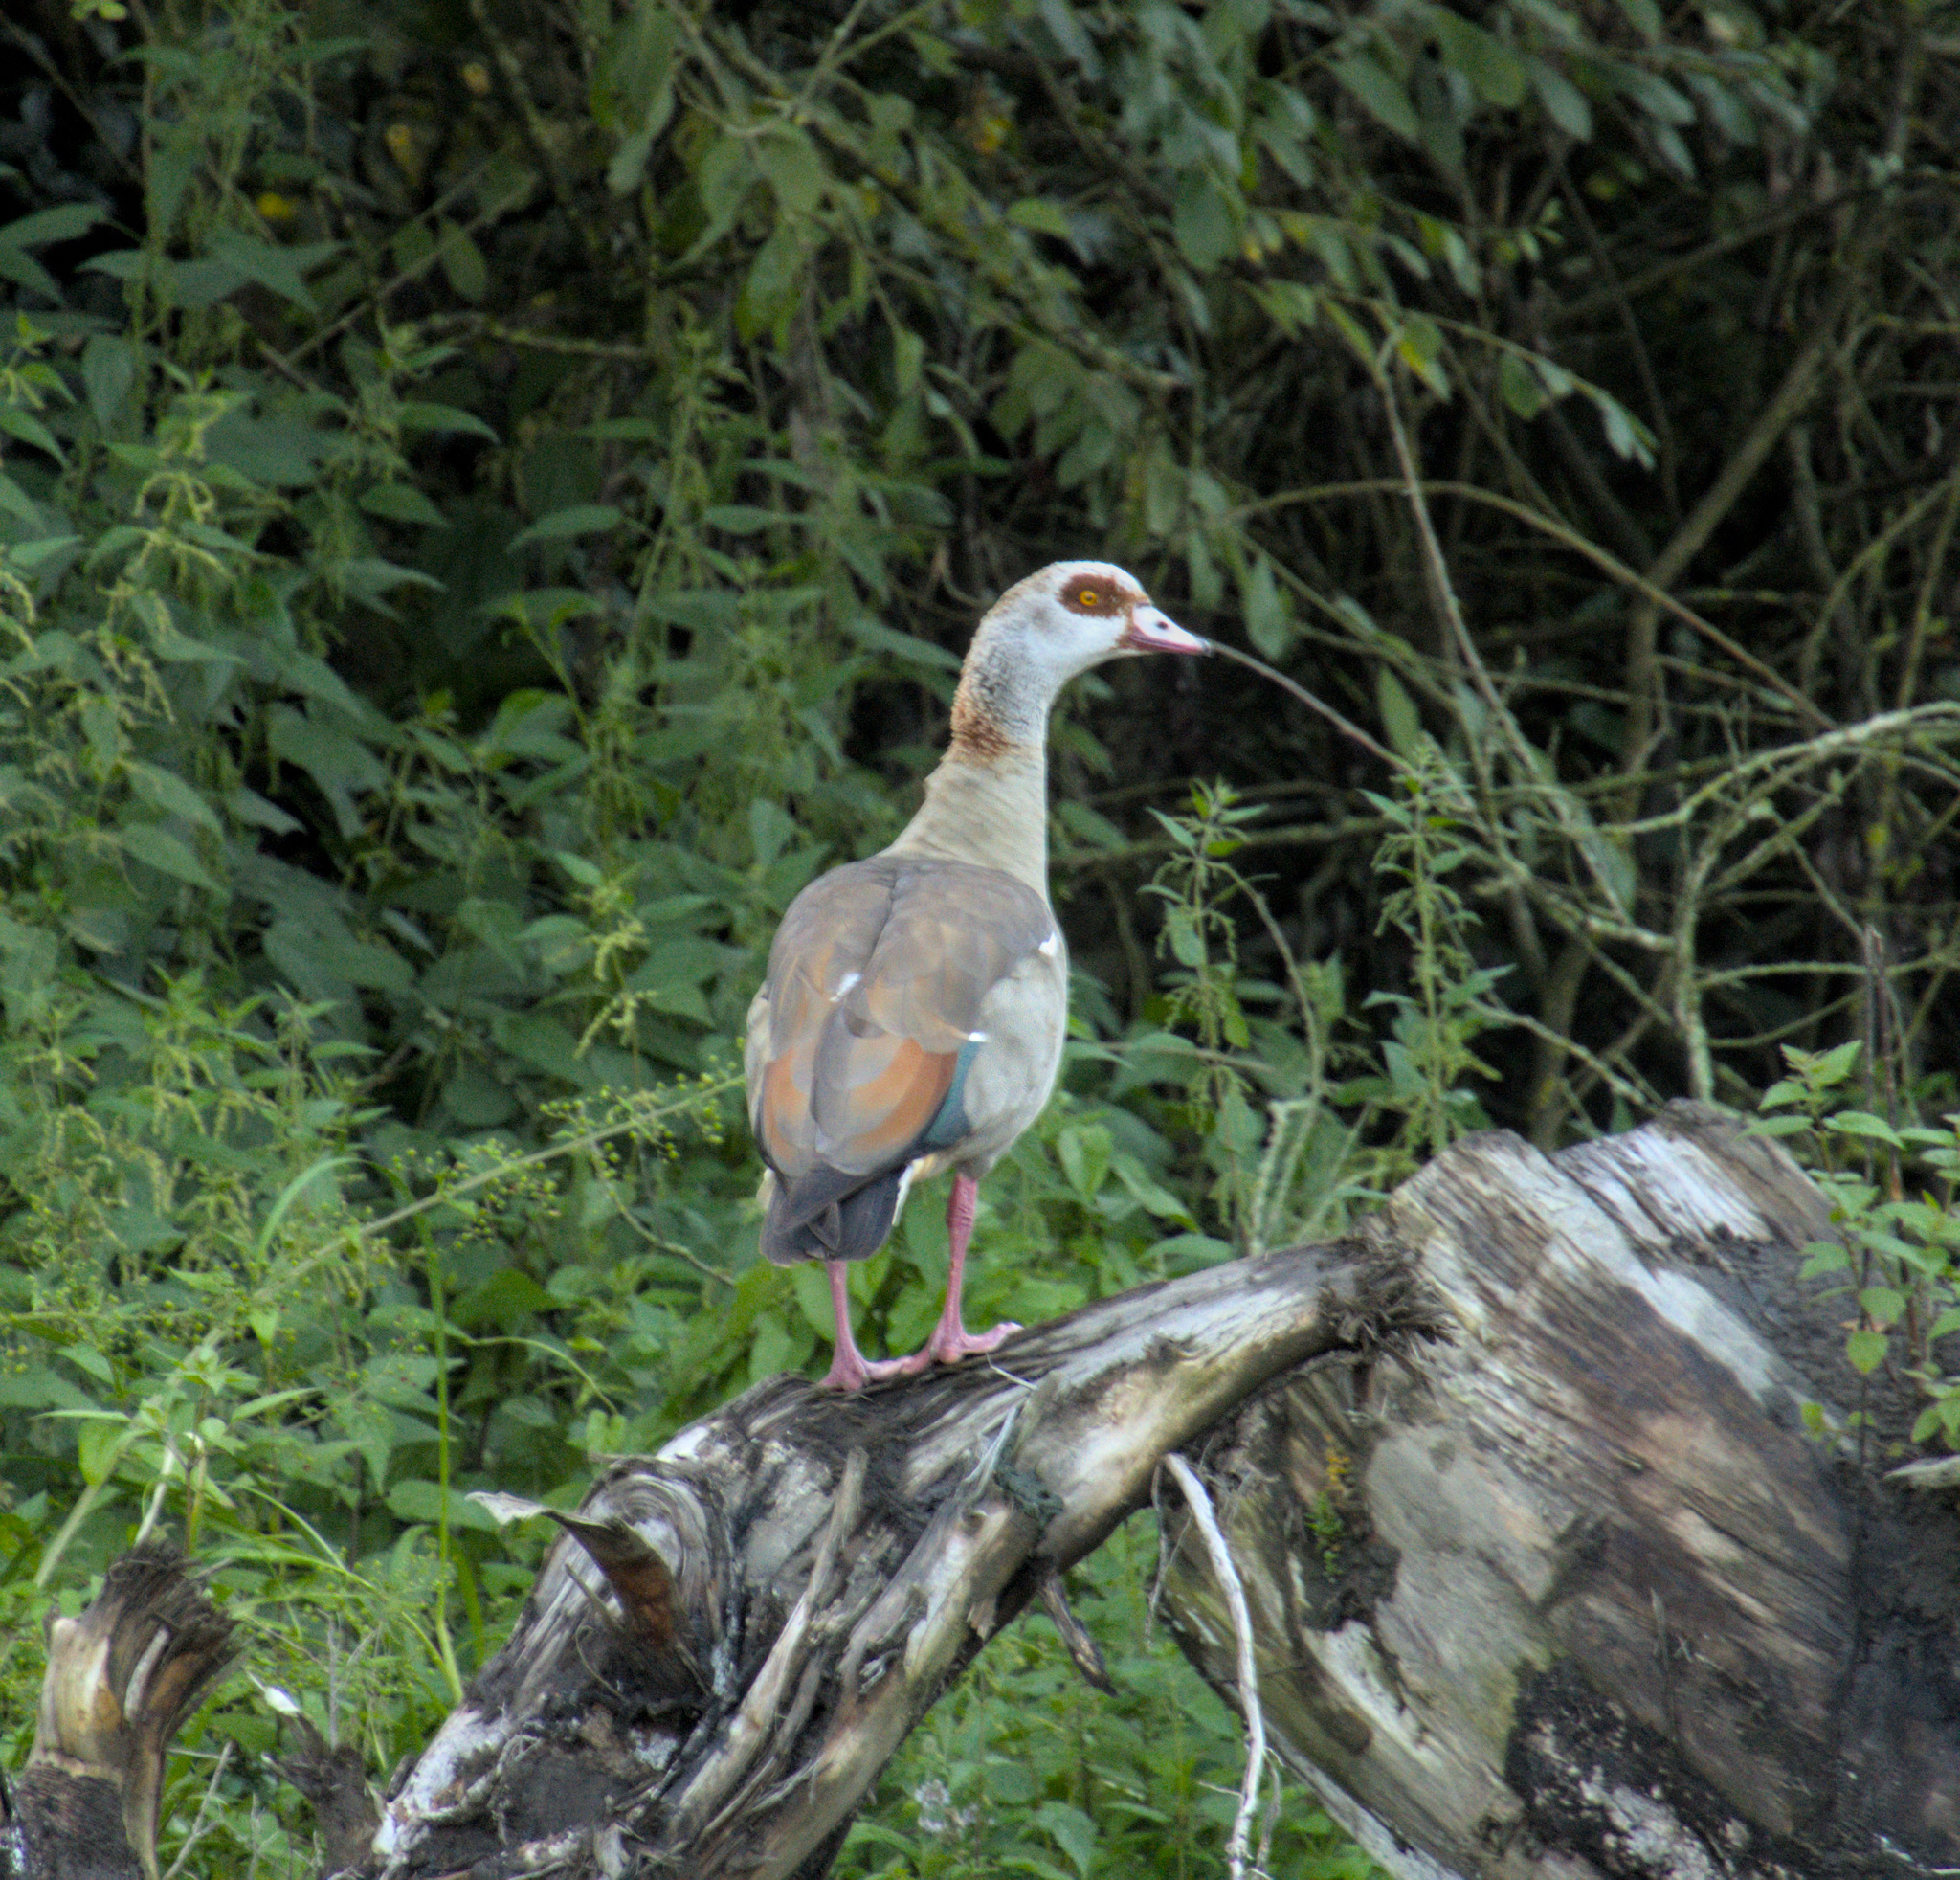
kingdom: Animalia
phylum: Chordata
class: Aves
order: Anseriformes
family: Anatidae
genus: Alopochen
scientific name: Alopochen aegyptiaca
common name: Egyptian goose
